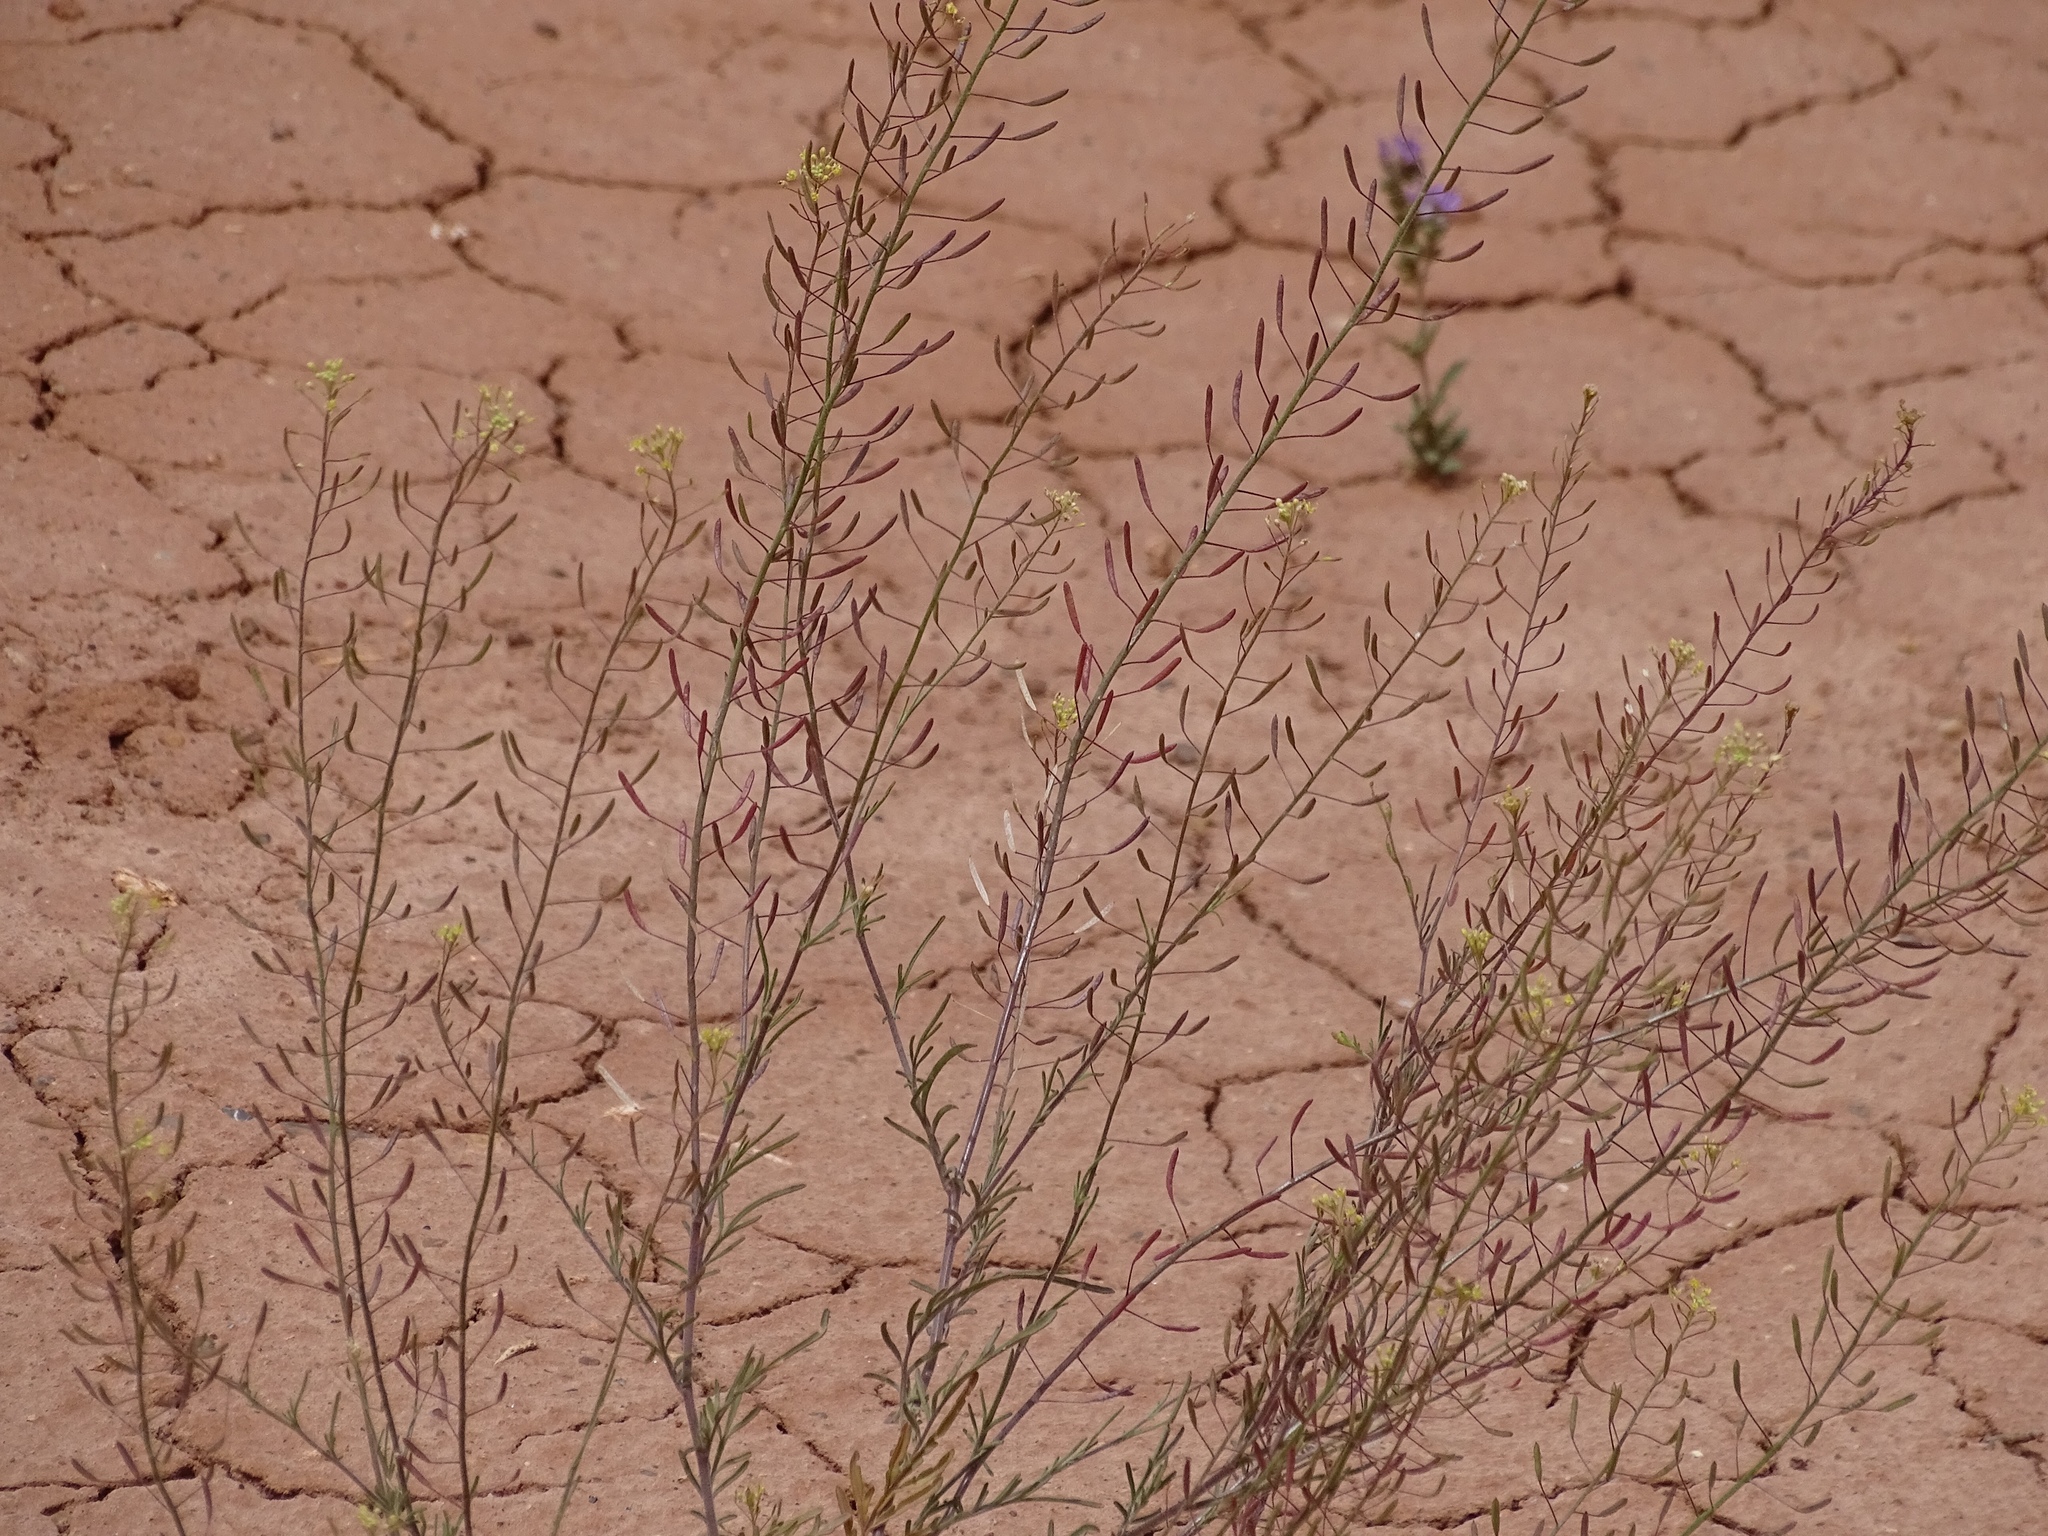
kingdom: Plantae
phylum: Tracheophyta
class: Magnoliopsida
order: Brassicales
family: Brassicaceae
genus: Descurainia
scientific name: Descurainia pinnata
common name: Western tansy mustard
